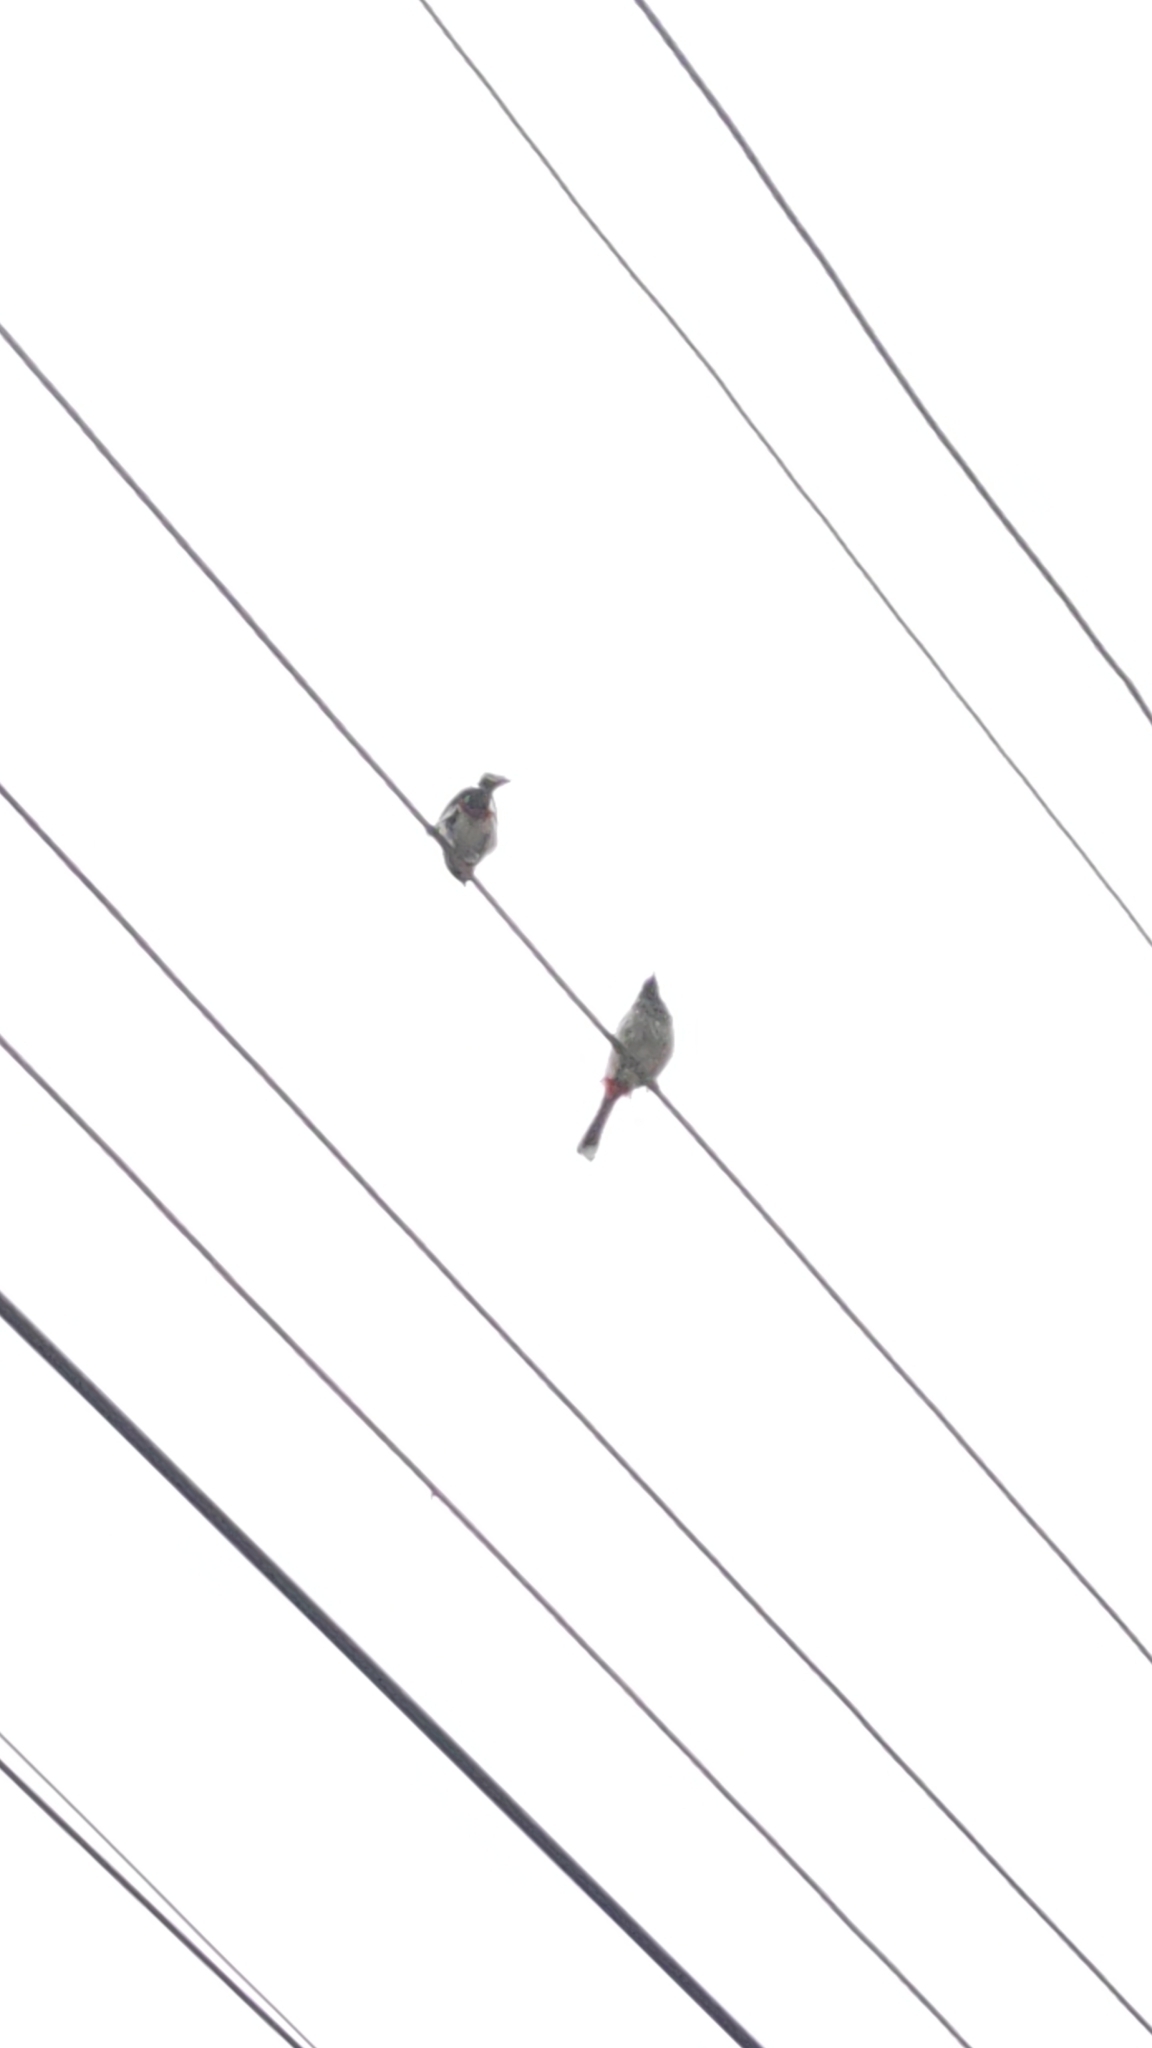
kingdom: Animalia
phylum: Chordata
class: Aves
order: Passeriformes
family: Pycnonotidae
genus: Pycnonotus
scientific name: Pycnonotus cafer
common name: Red-vented bulbul
